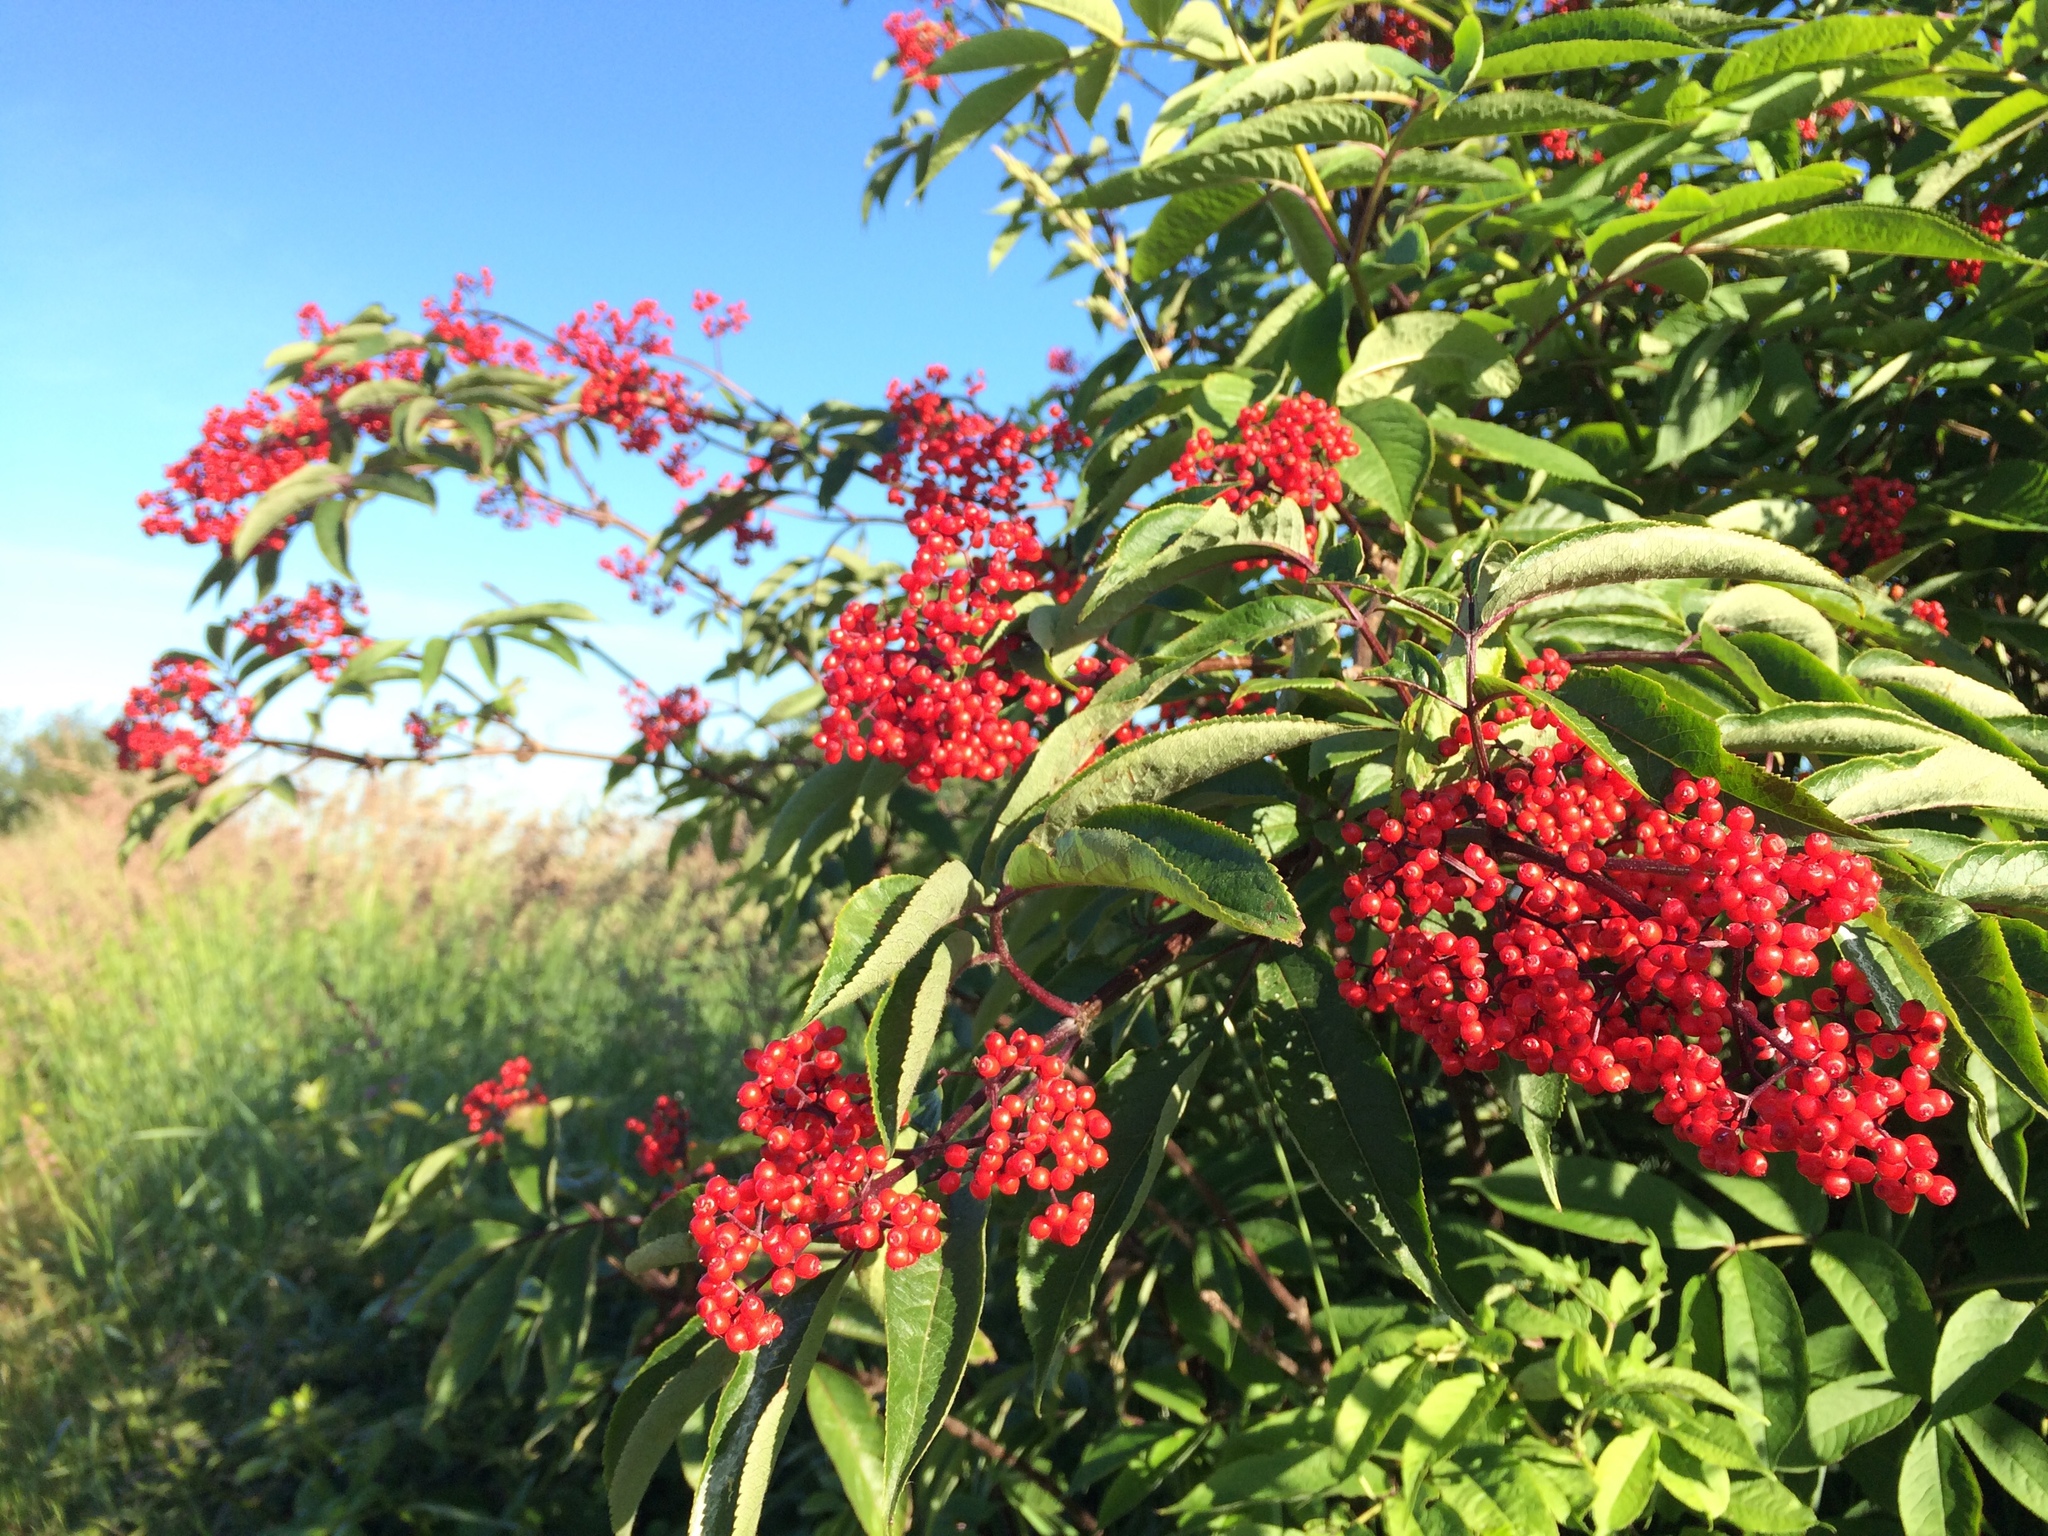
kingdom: Plantae
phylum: Tracheophyta
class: Magnoliopsida
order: Dipsacales
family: Viburnaceae
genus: Sambucus
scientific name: Sambucus racemosa
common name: Red-berried elder
